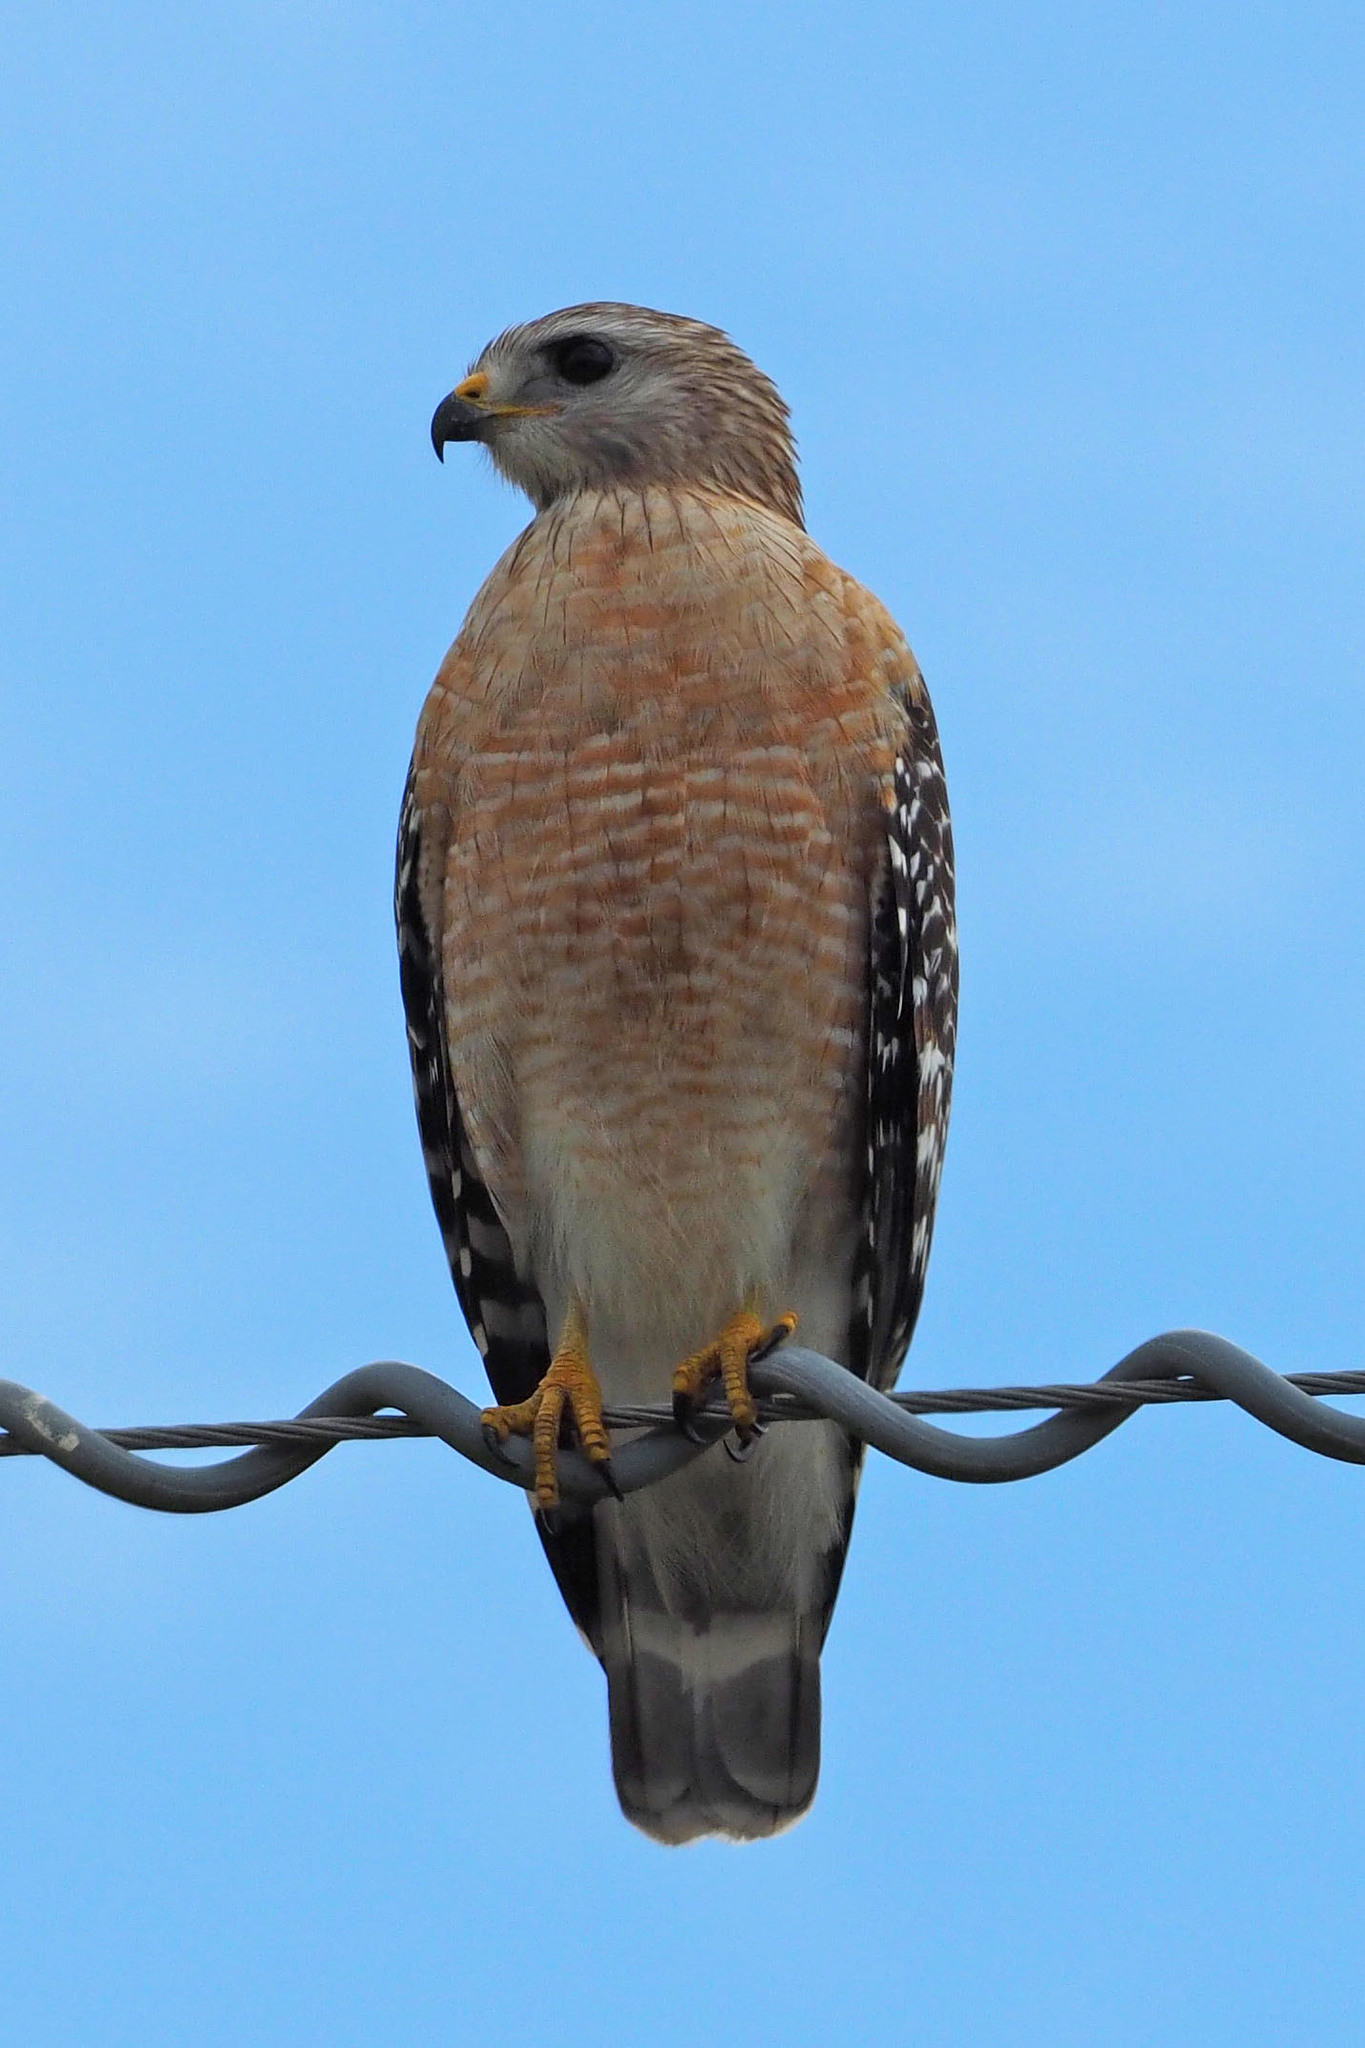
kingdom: Animalia
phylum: Chordata
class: Aves
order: Accipitriformes
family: Accipitridae
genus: Buteo
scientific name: Buteo lineatus
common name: Red-shouldered hawk
